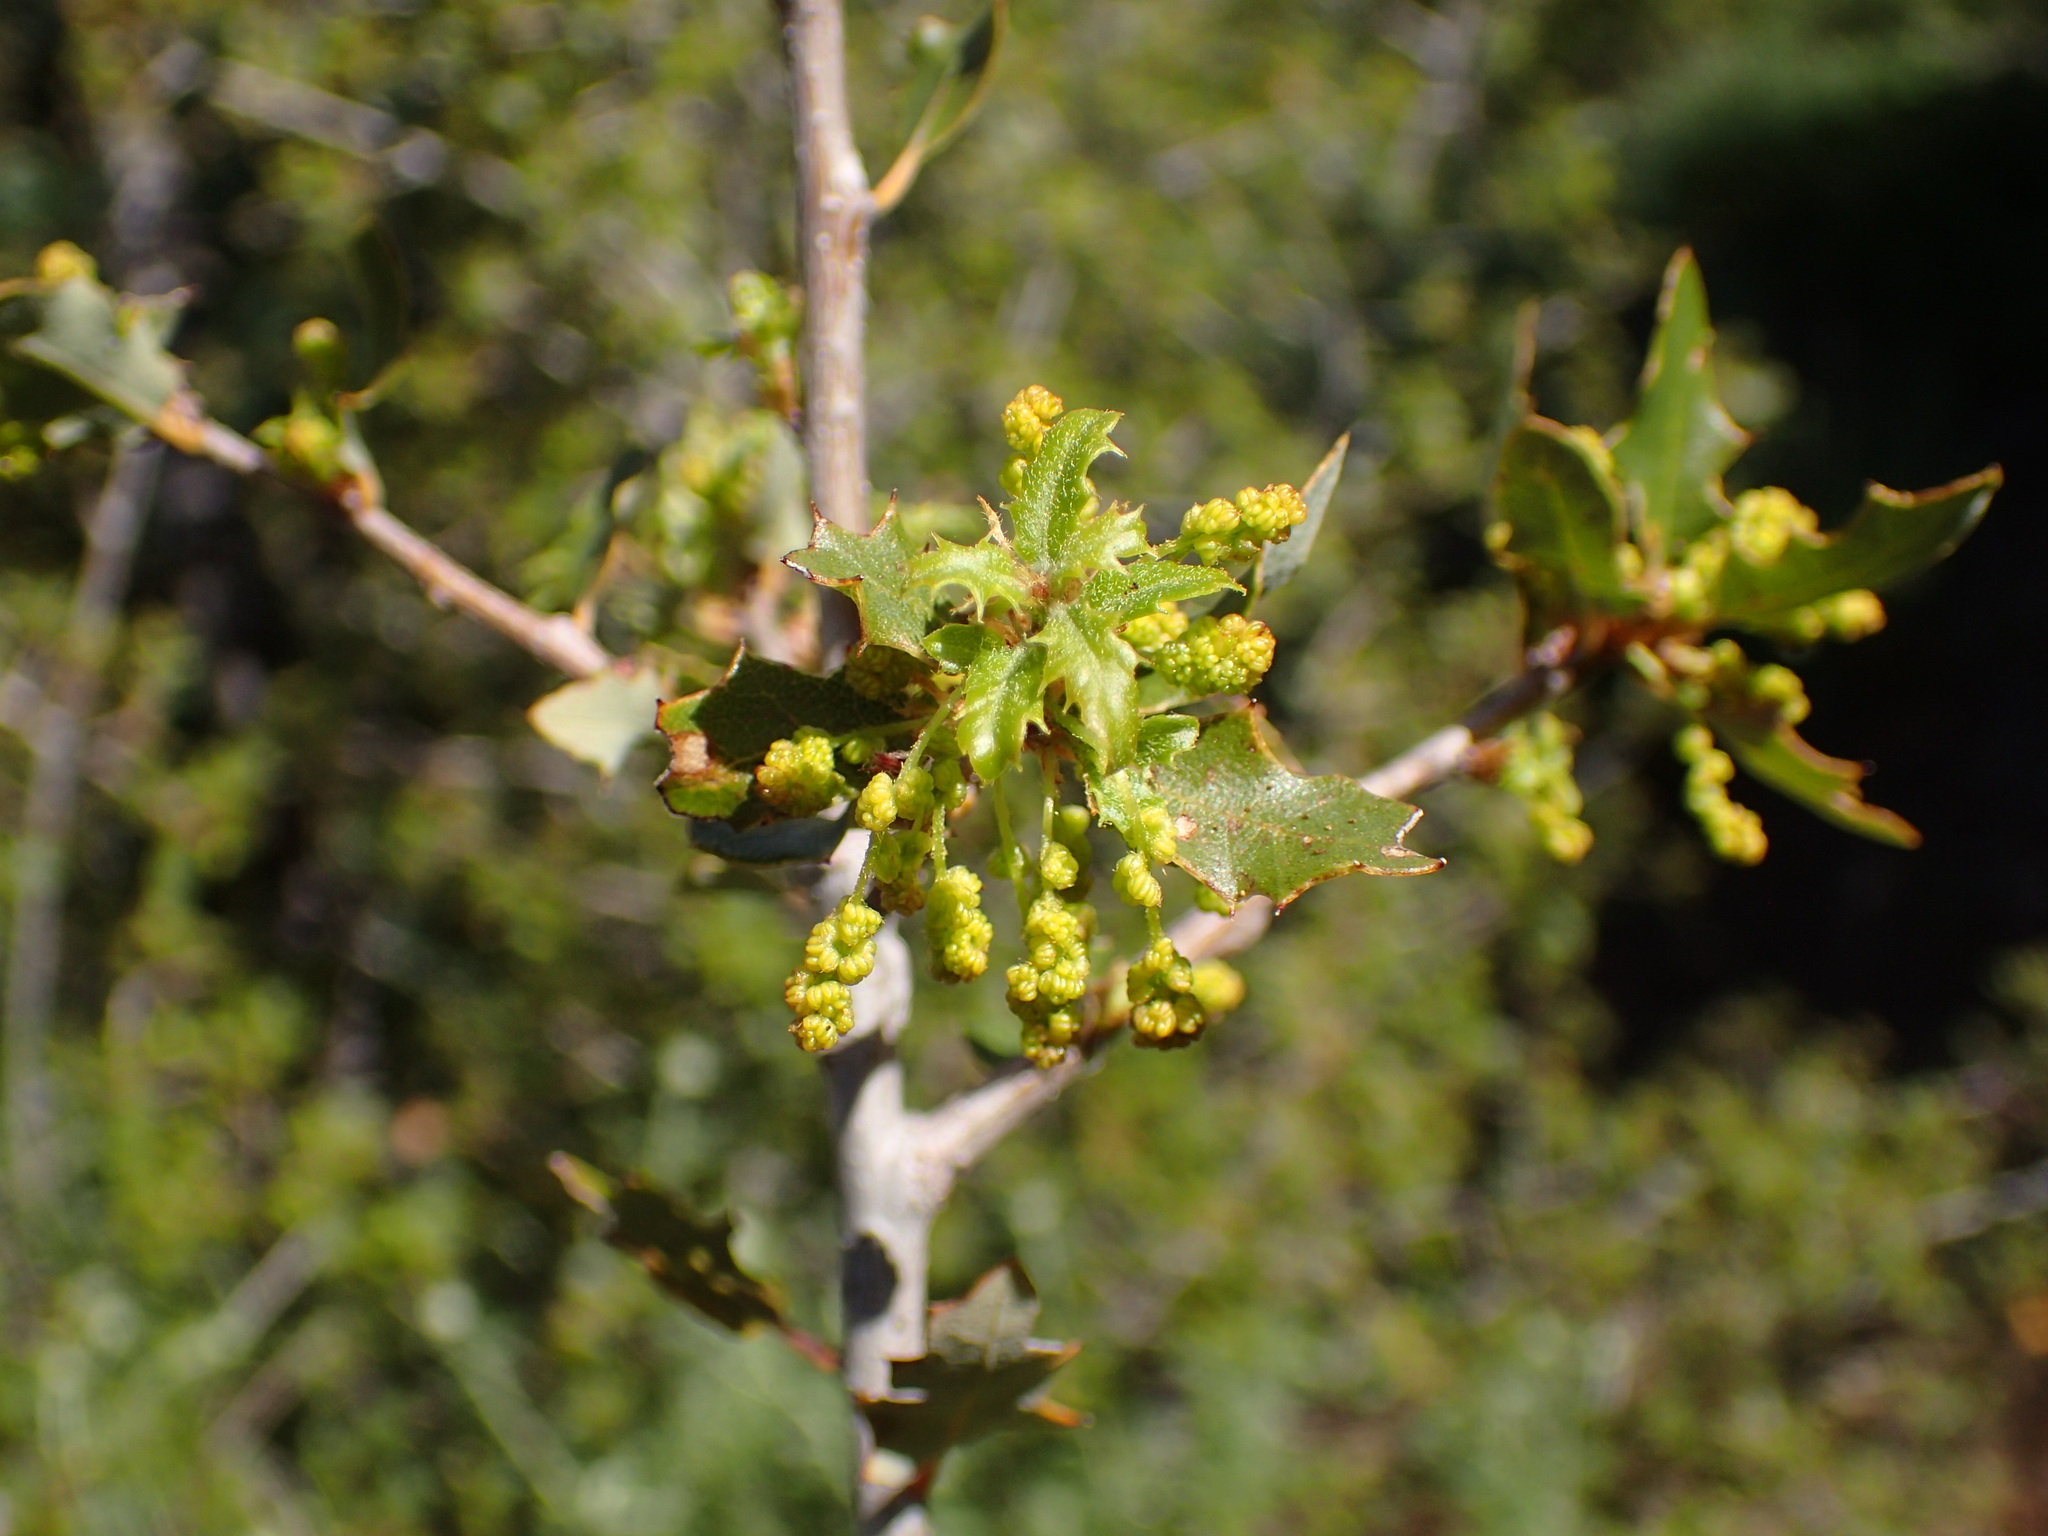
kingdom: Plantae
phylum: Tracheophyta
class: Magnoliopsida
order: Fagales
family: Fagaceae
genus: Quercus
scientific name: Quercus berberidifolia
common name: California scrub oak
